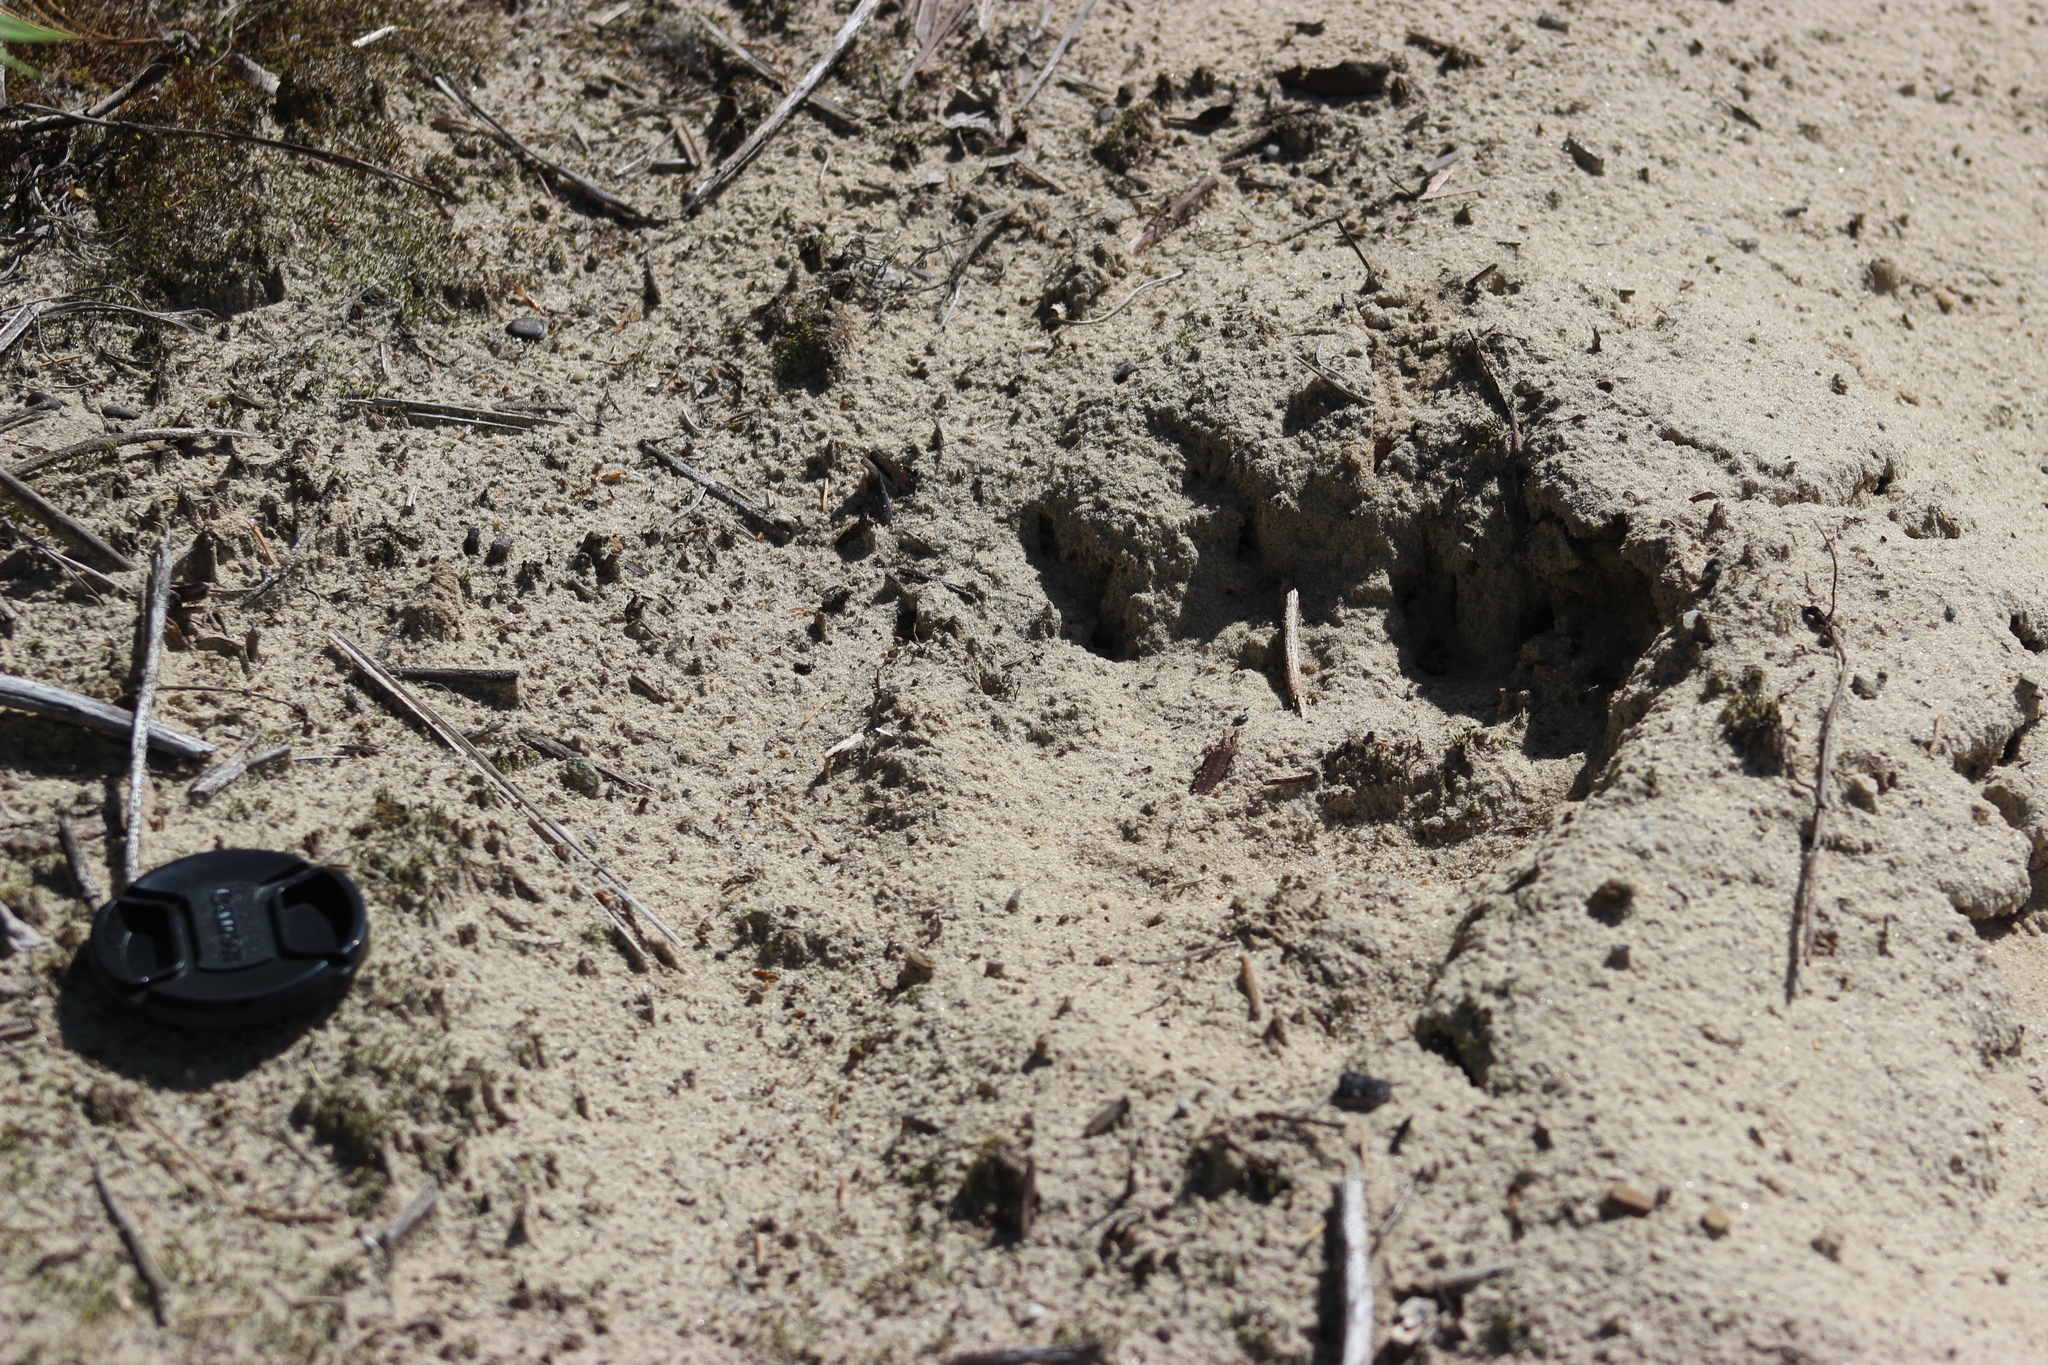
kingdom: Animalia
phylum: Chordata
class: Mammalia
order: Carnivora
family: Ursidae
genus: Ursus
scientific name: Ursus arctos
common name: Brown bear
